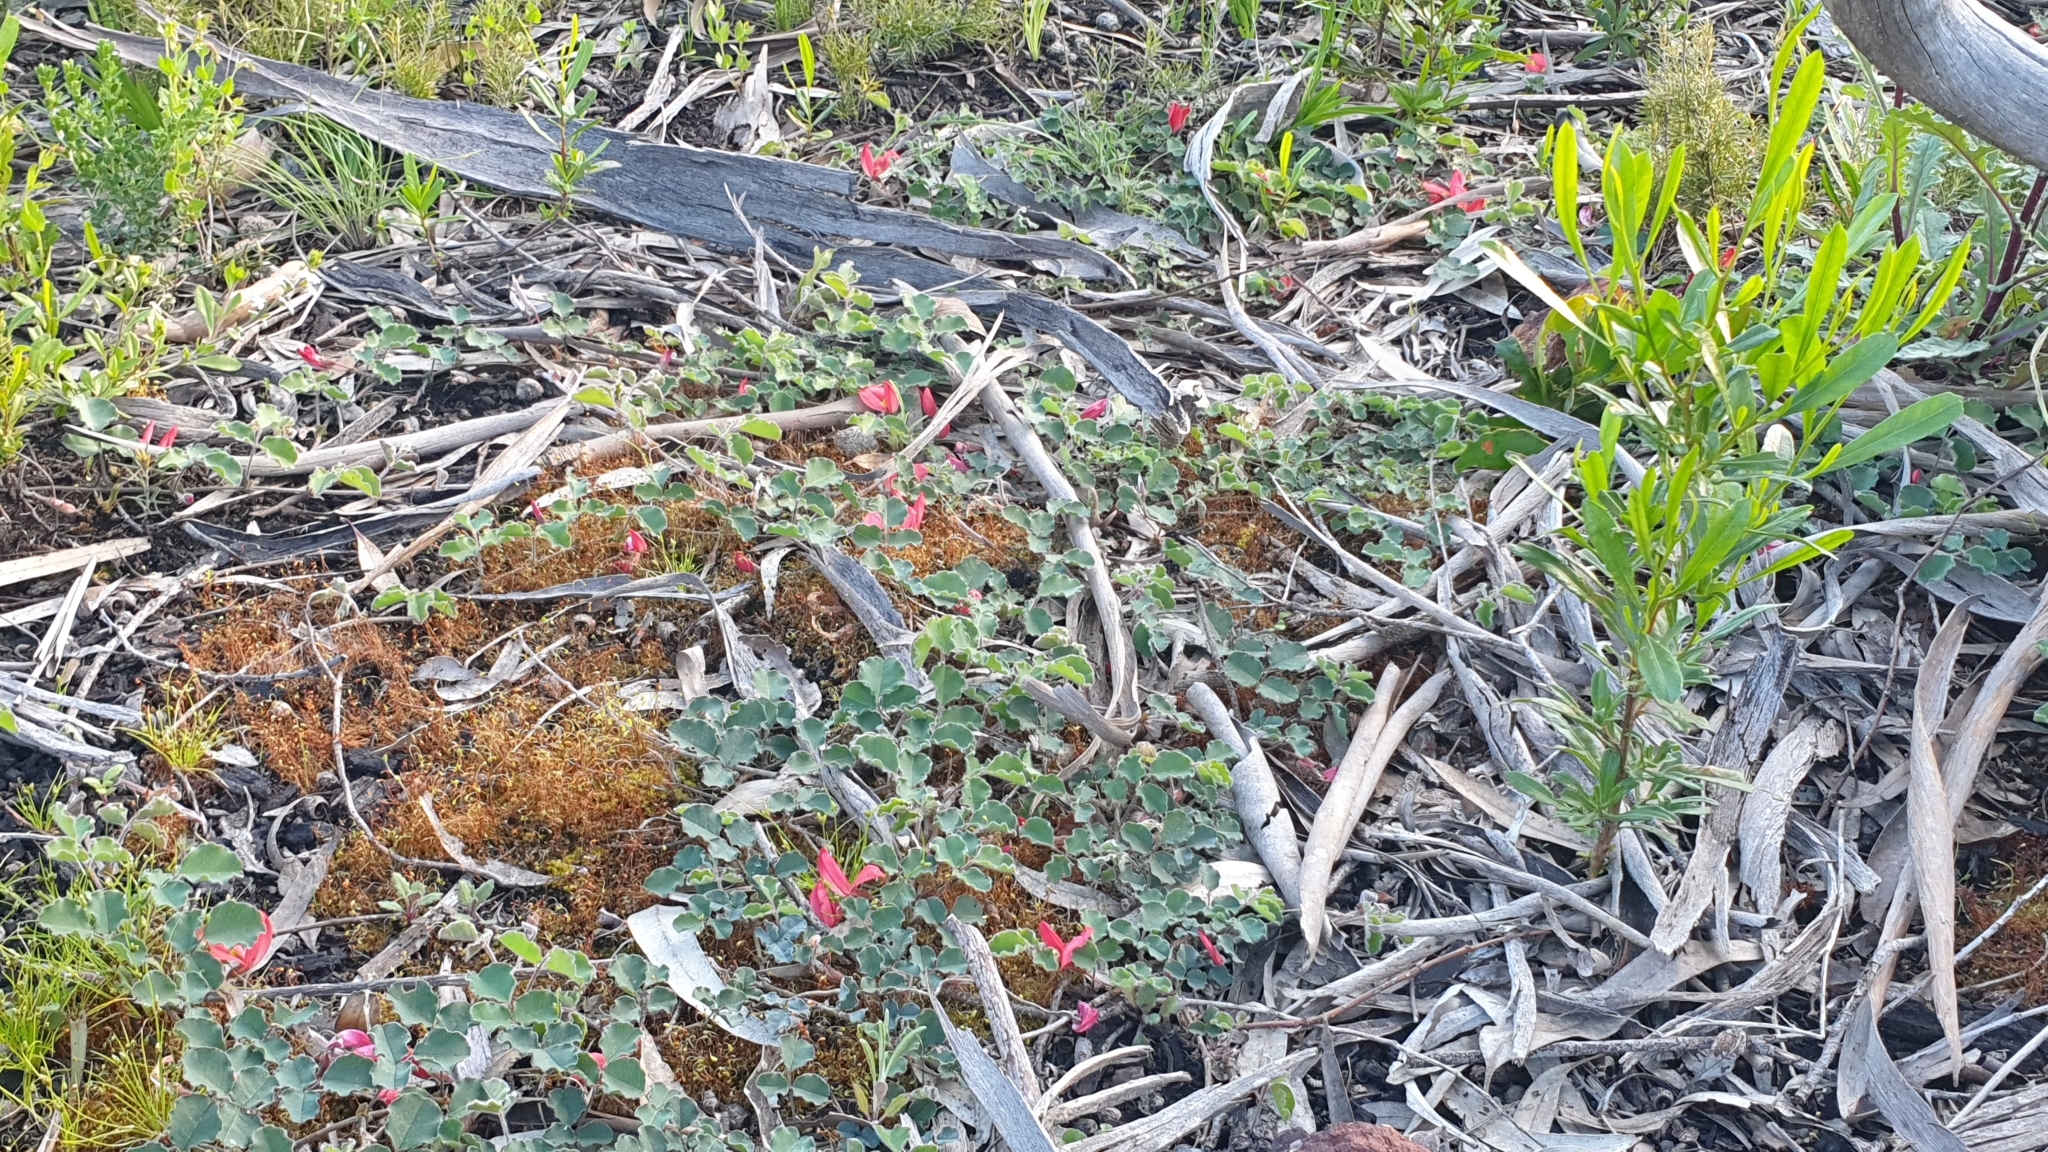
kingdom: Plantae
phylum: Tracheophyta
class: Magnoliopsida
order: Fabales
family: Fabaceae
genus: Kennedia
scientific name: Kennedia prostrata
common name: Running-postman
